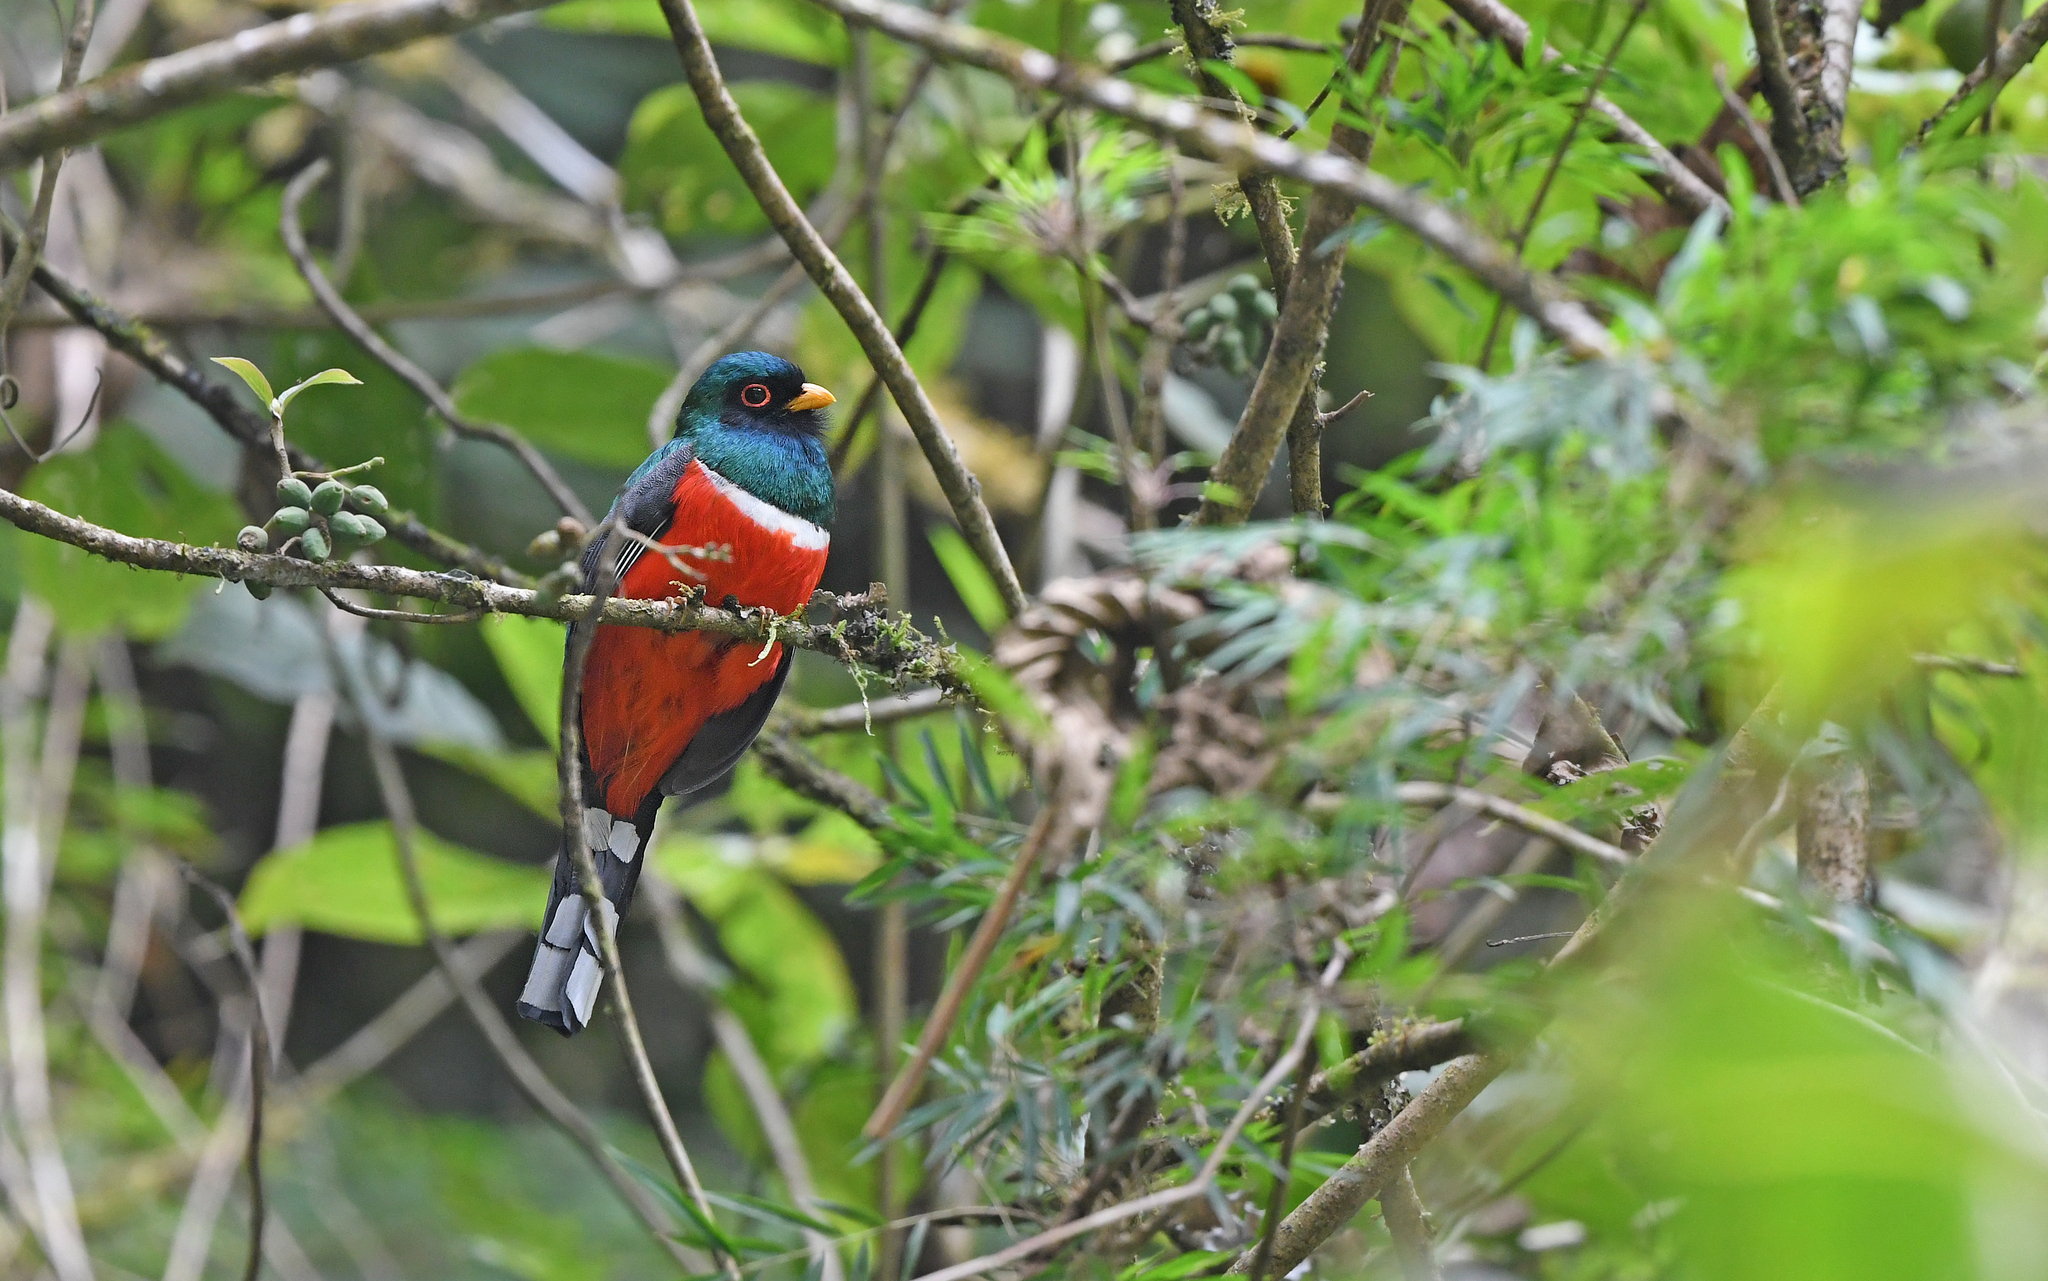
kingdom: Animalia
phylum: Chordata
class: Aves
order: Trogoniformes
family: Trogonidae
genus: Trogon
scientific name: Trogon personatus
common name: Masked trogon
